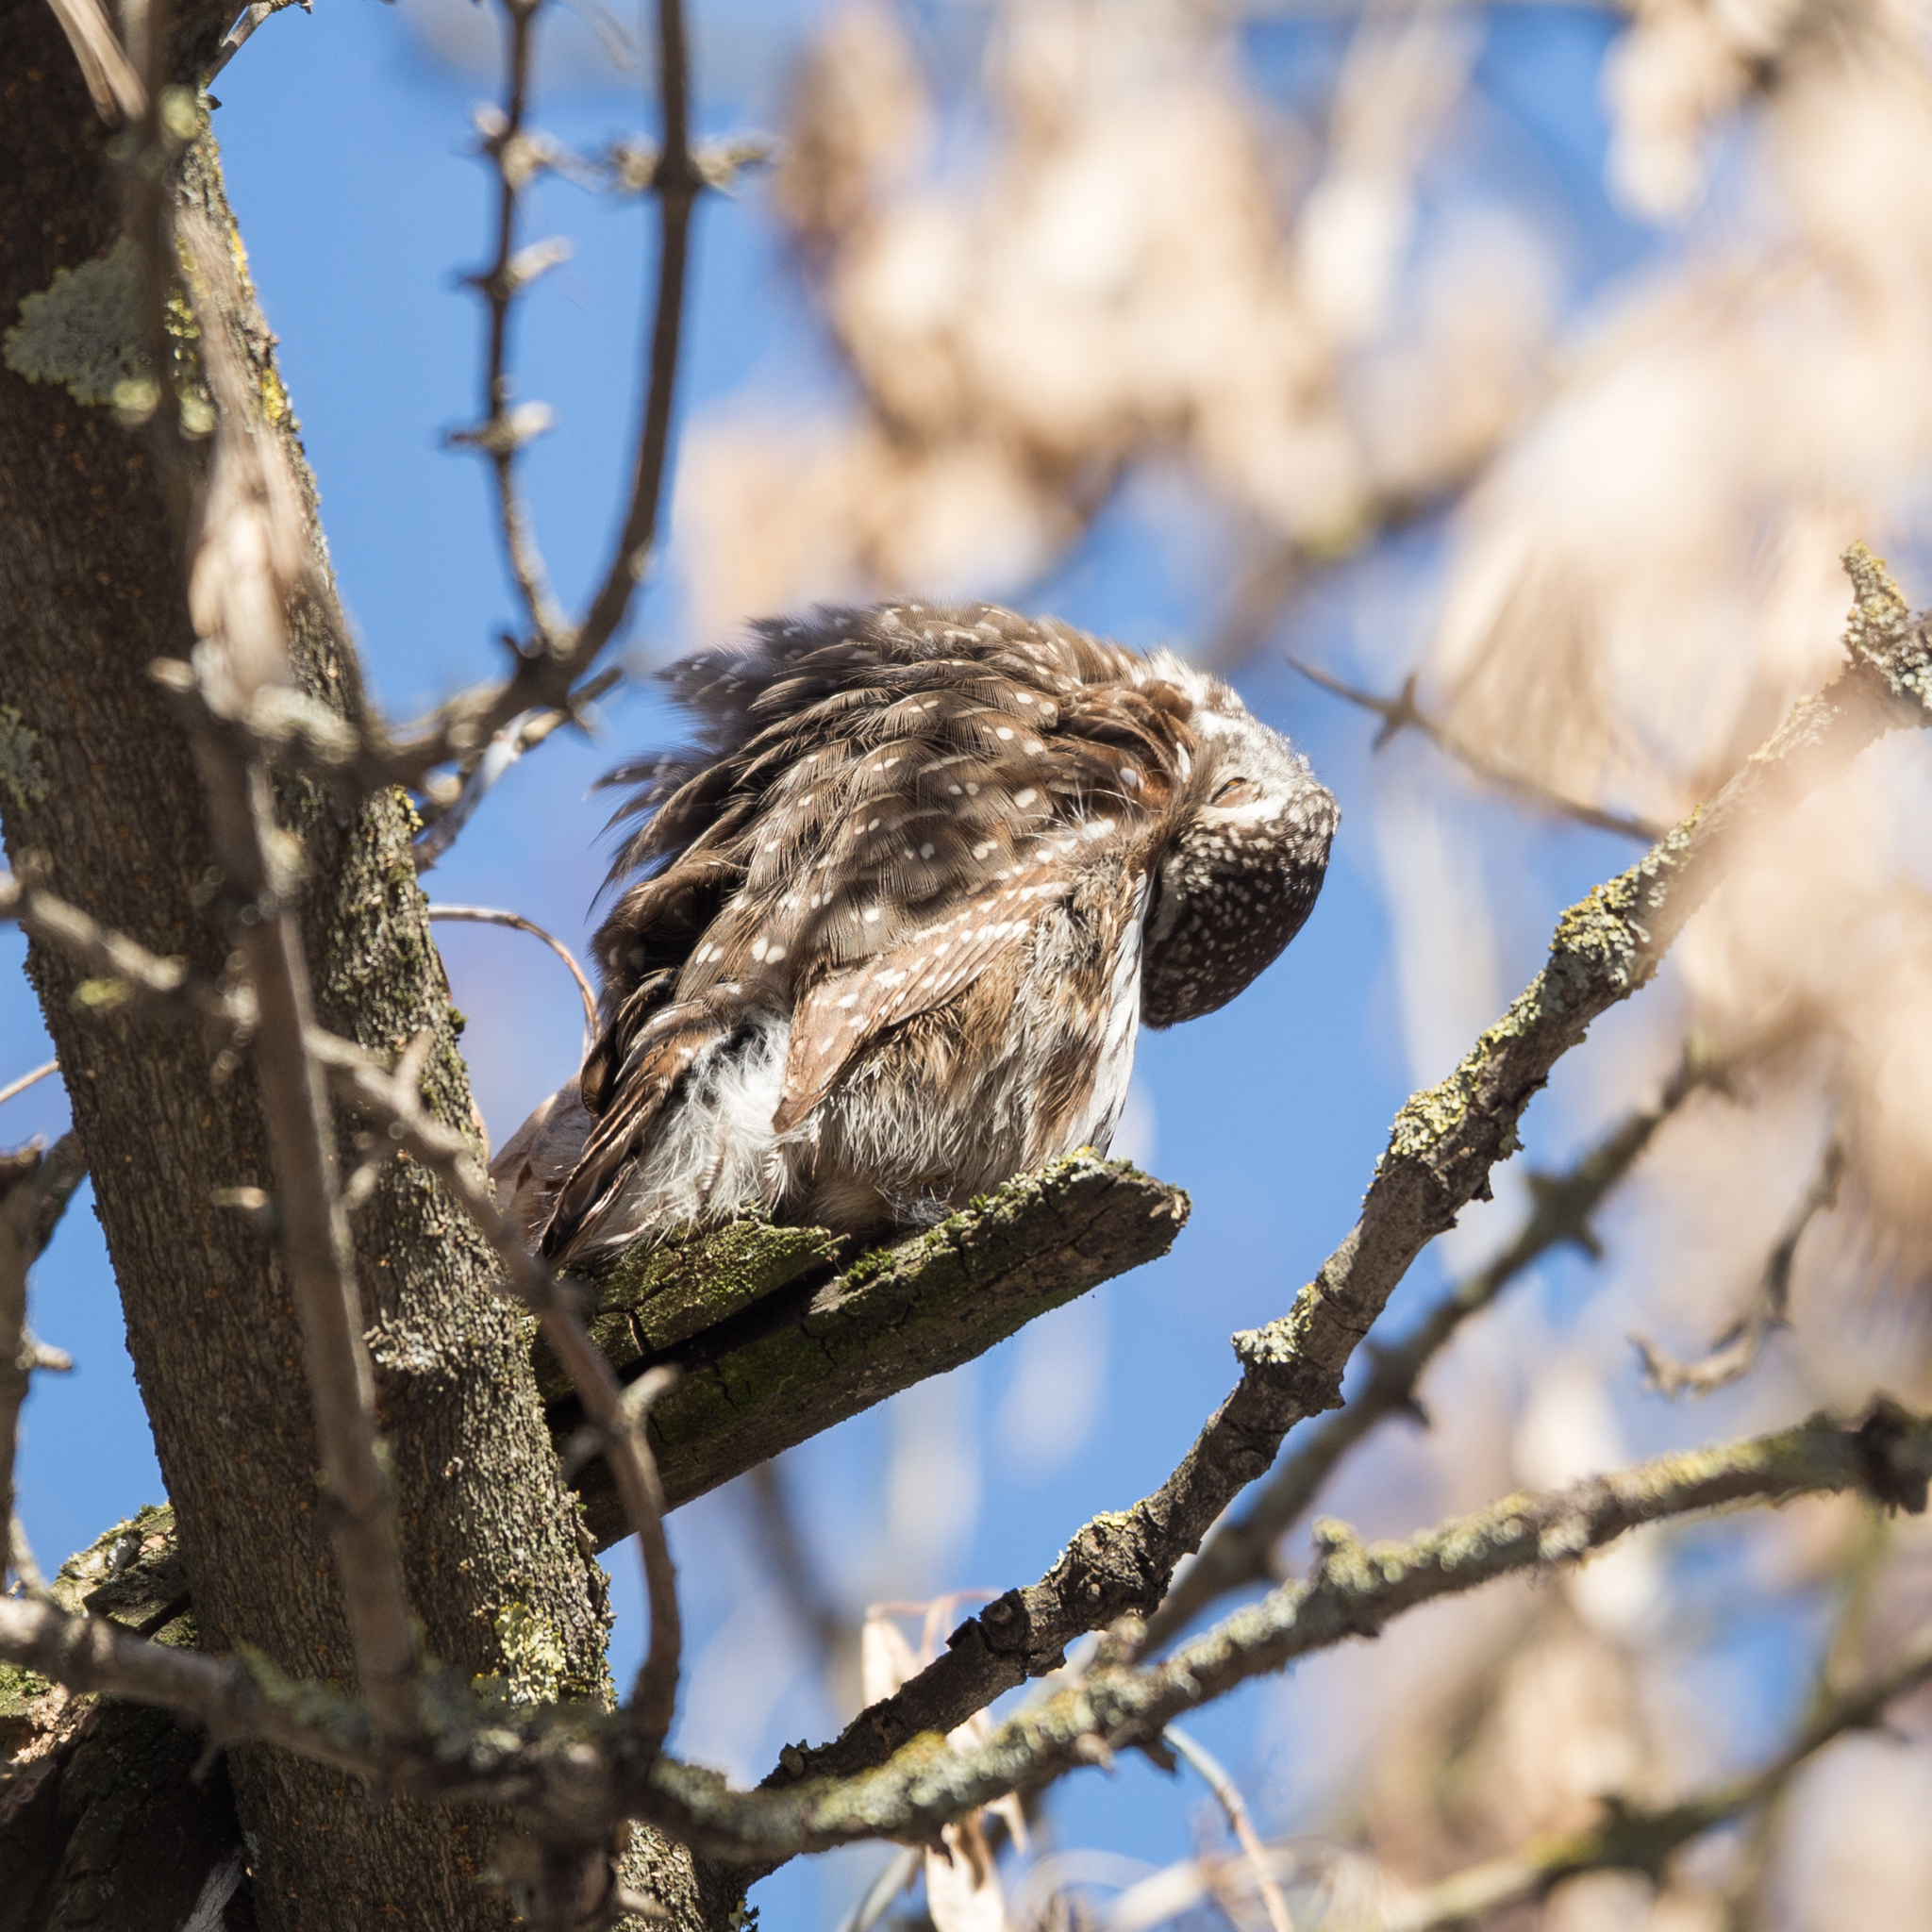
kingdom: Animalia
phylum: Chordata
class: Aves
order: Strigiformes
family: Strigidae
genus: Glaucidium
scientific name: Glaucidium passerinum
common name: Eurasian pygmy owl
